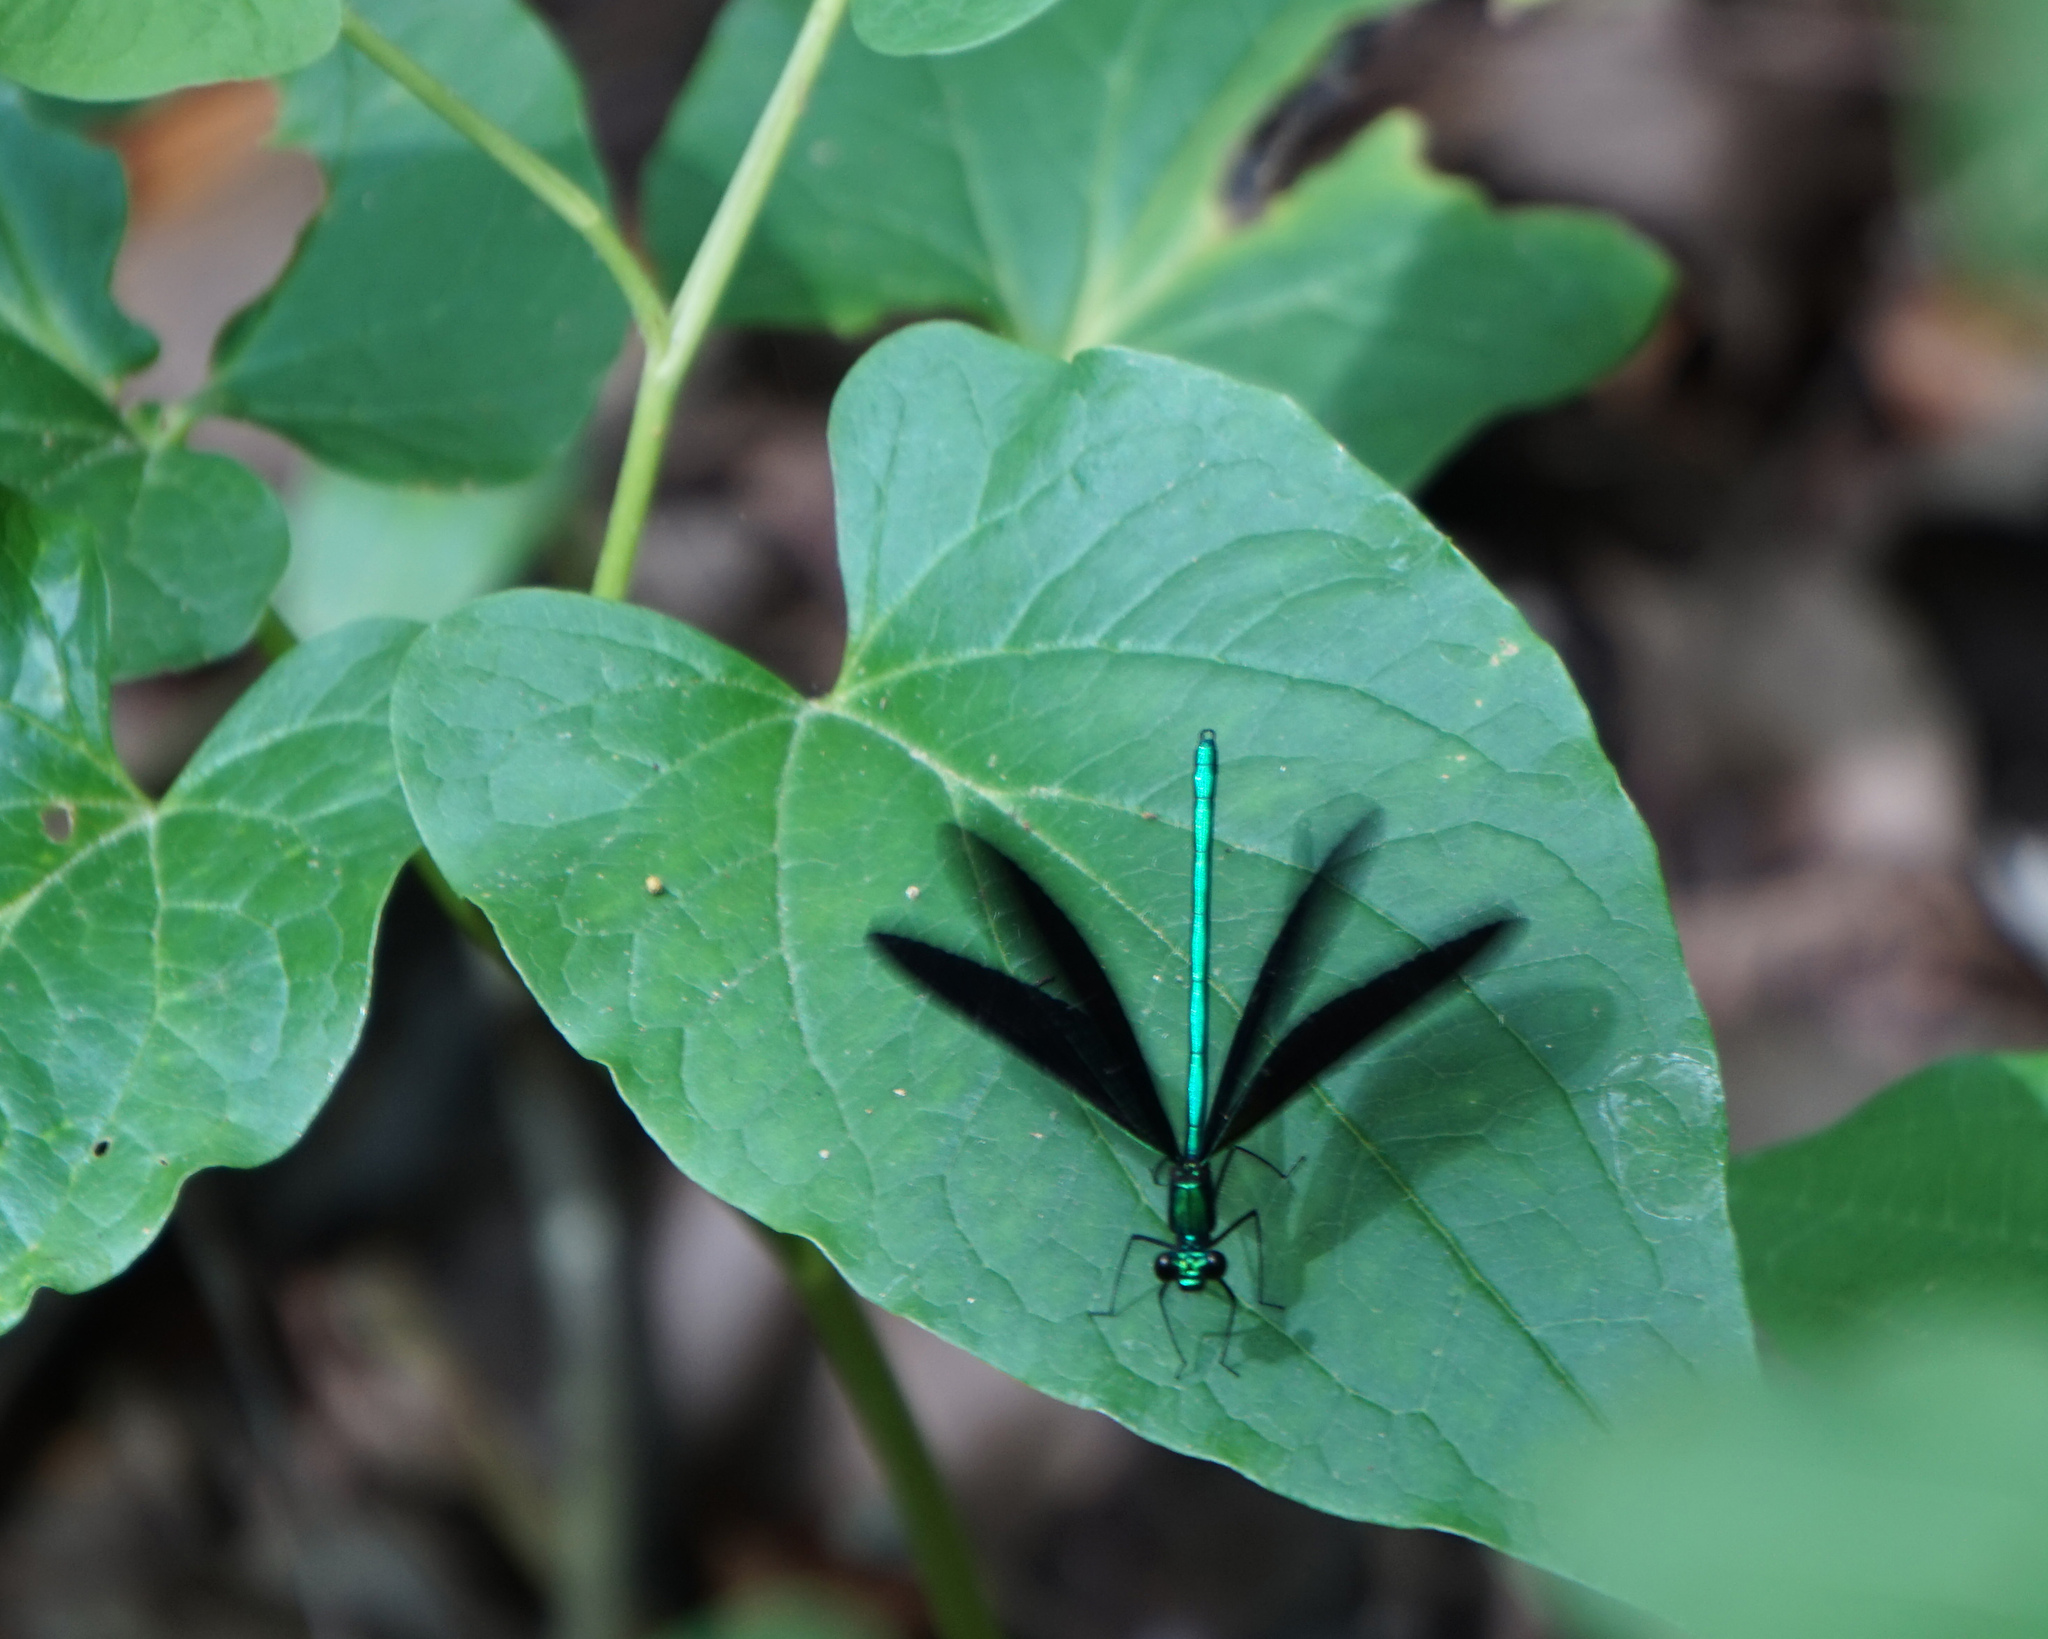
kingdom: Animalia
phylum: Arthropoda
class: Insecta
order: Odonata
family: Calopterygidae
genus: Calopteryx
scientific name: Calopteryx maculata
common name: Ebony jewelwing
